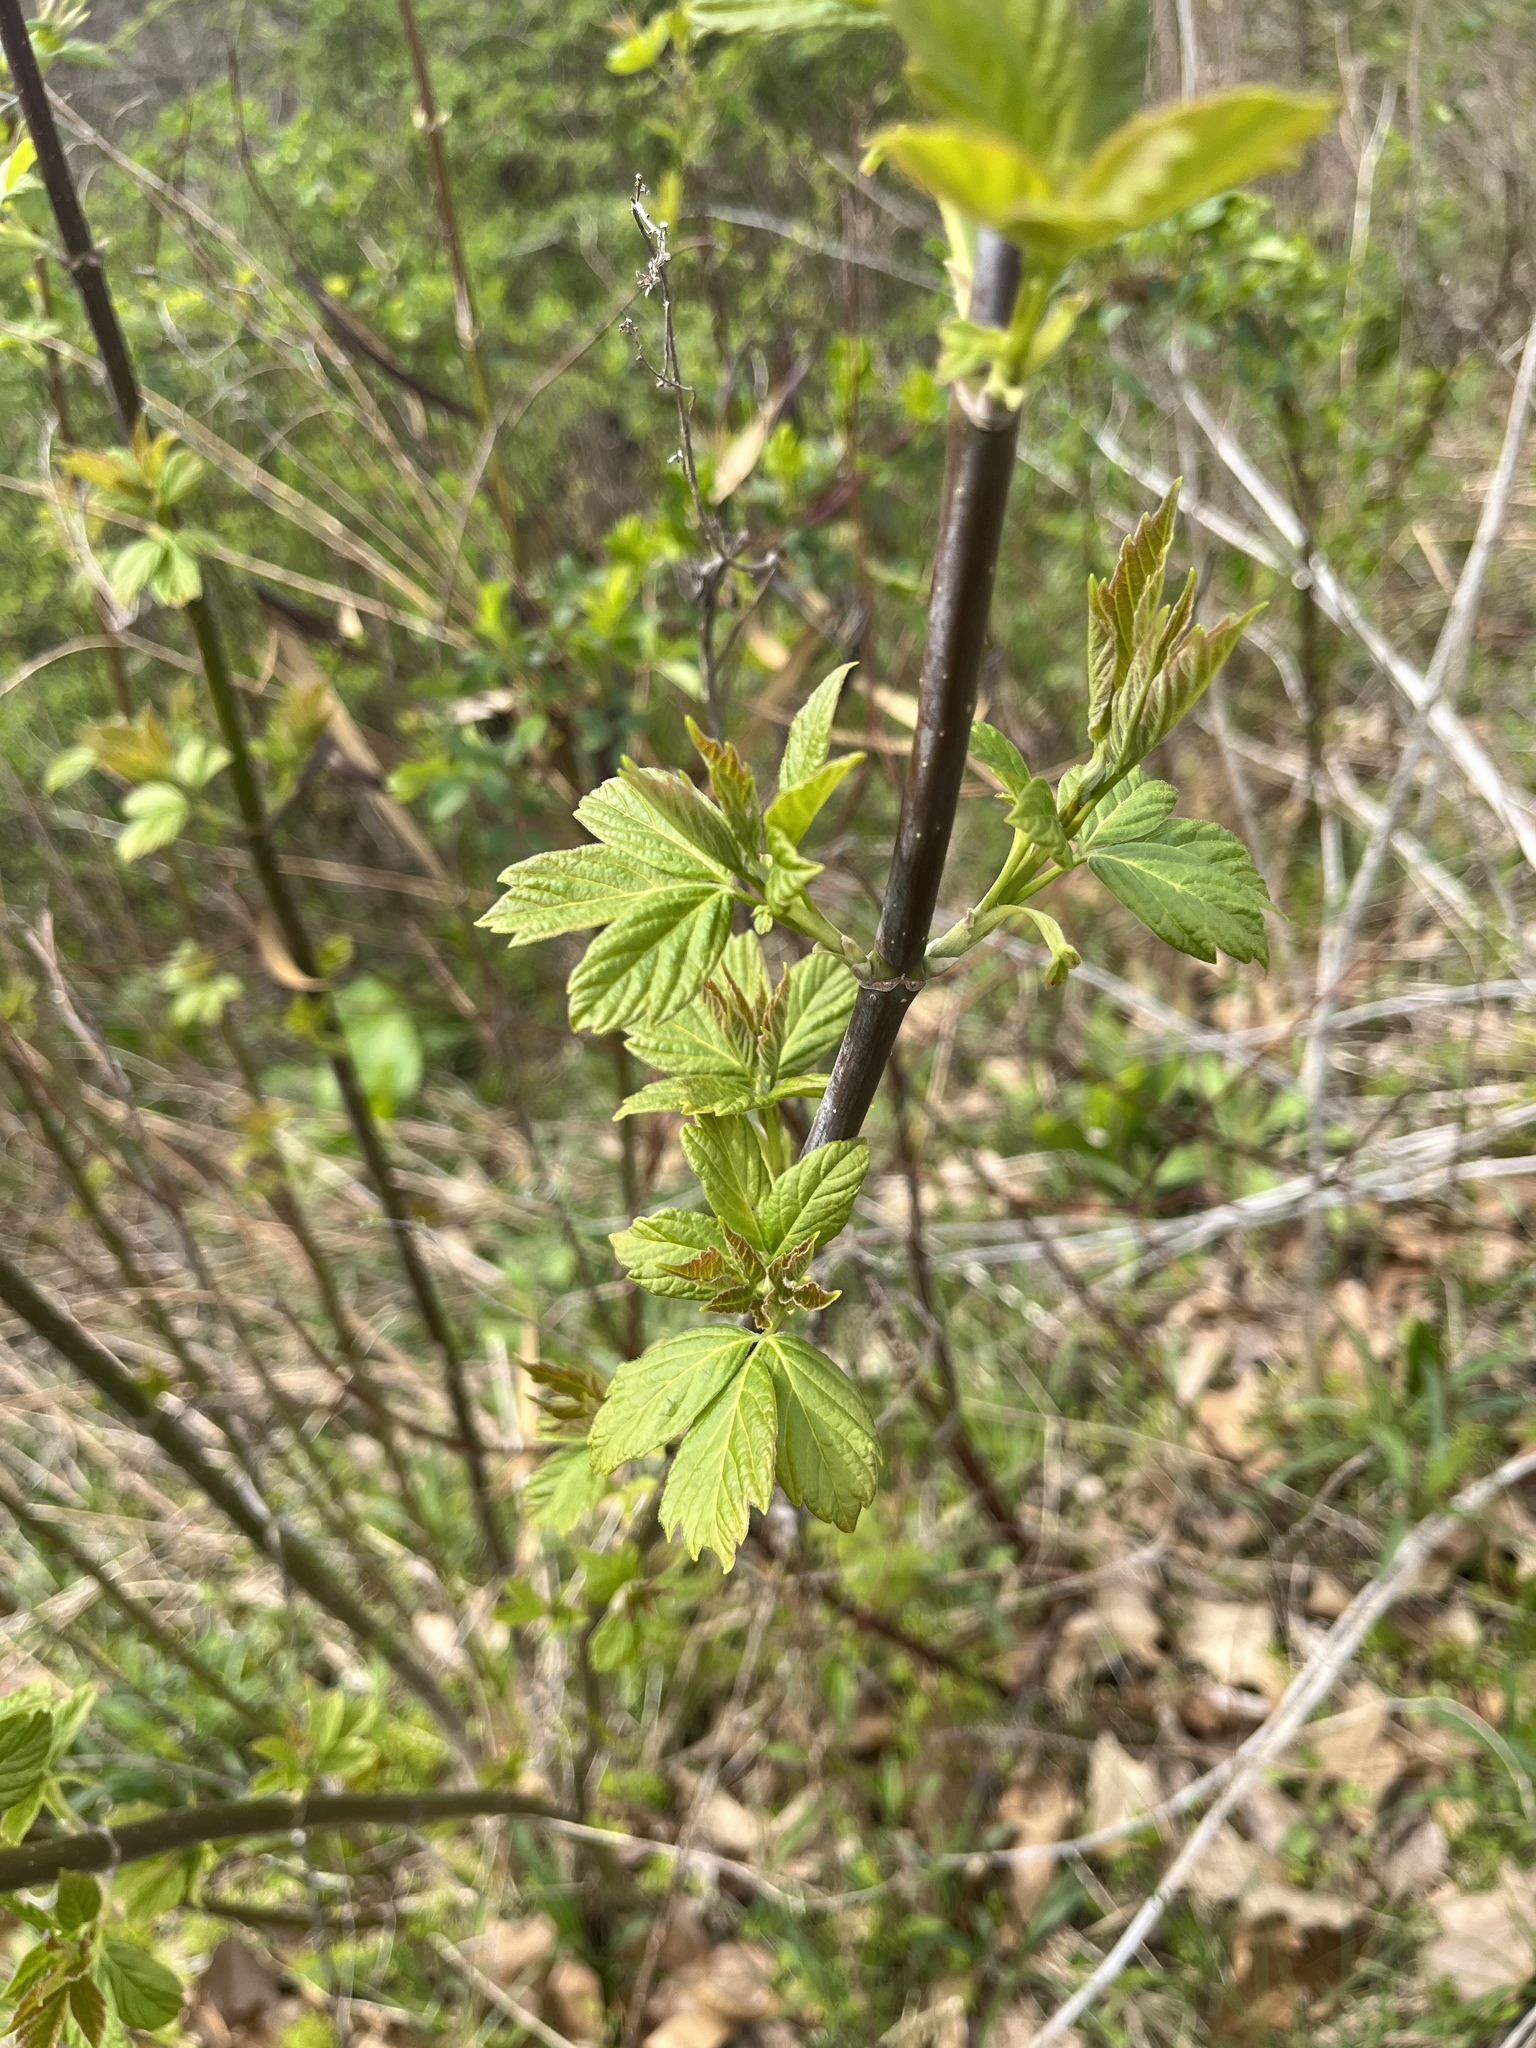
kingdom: Plantae
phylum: Tracheophyta
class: Magnoliopsida
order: Sapindales
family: Sapindaceae
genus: Acer
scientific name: Acer negundo
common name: Ashleaf maple
